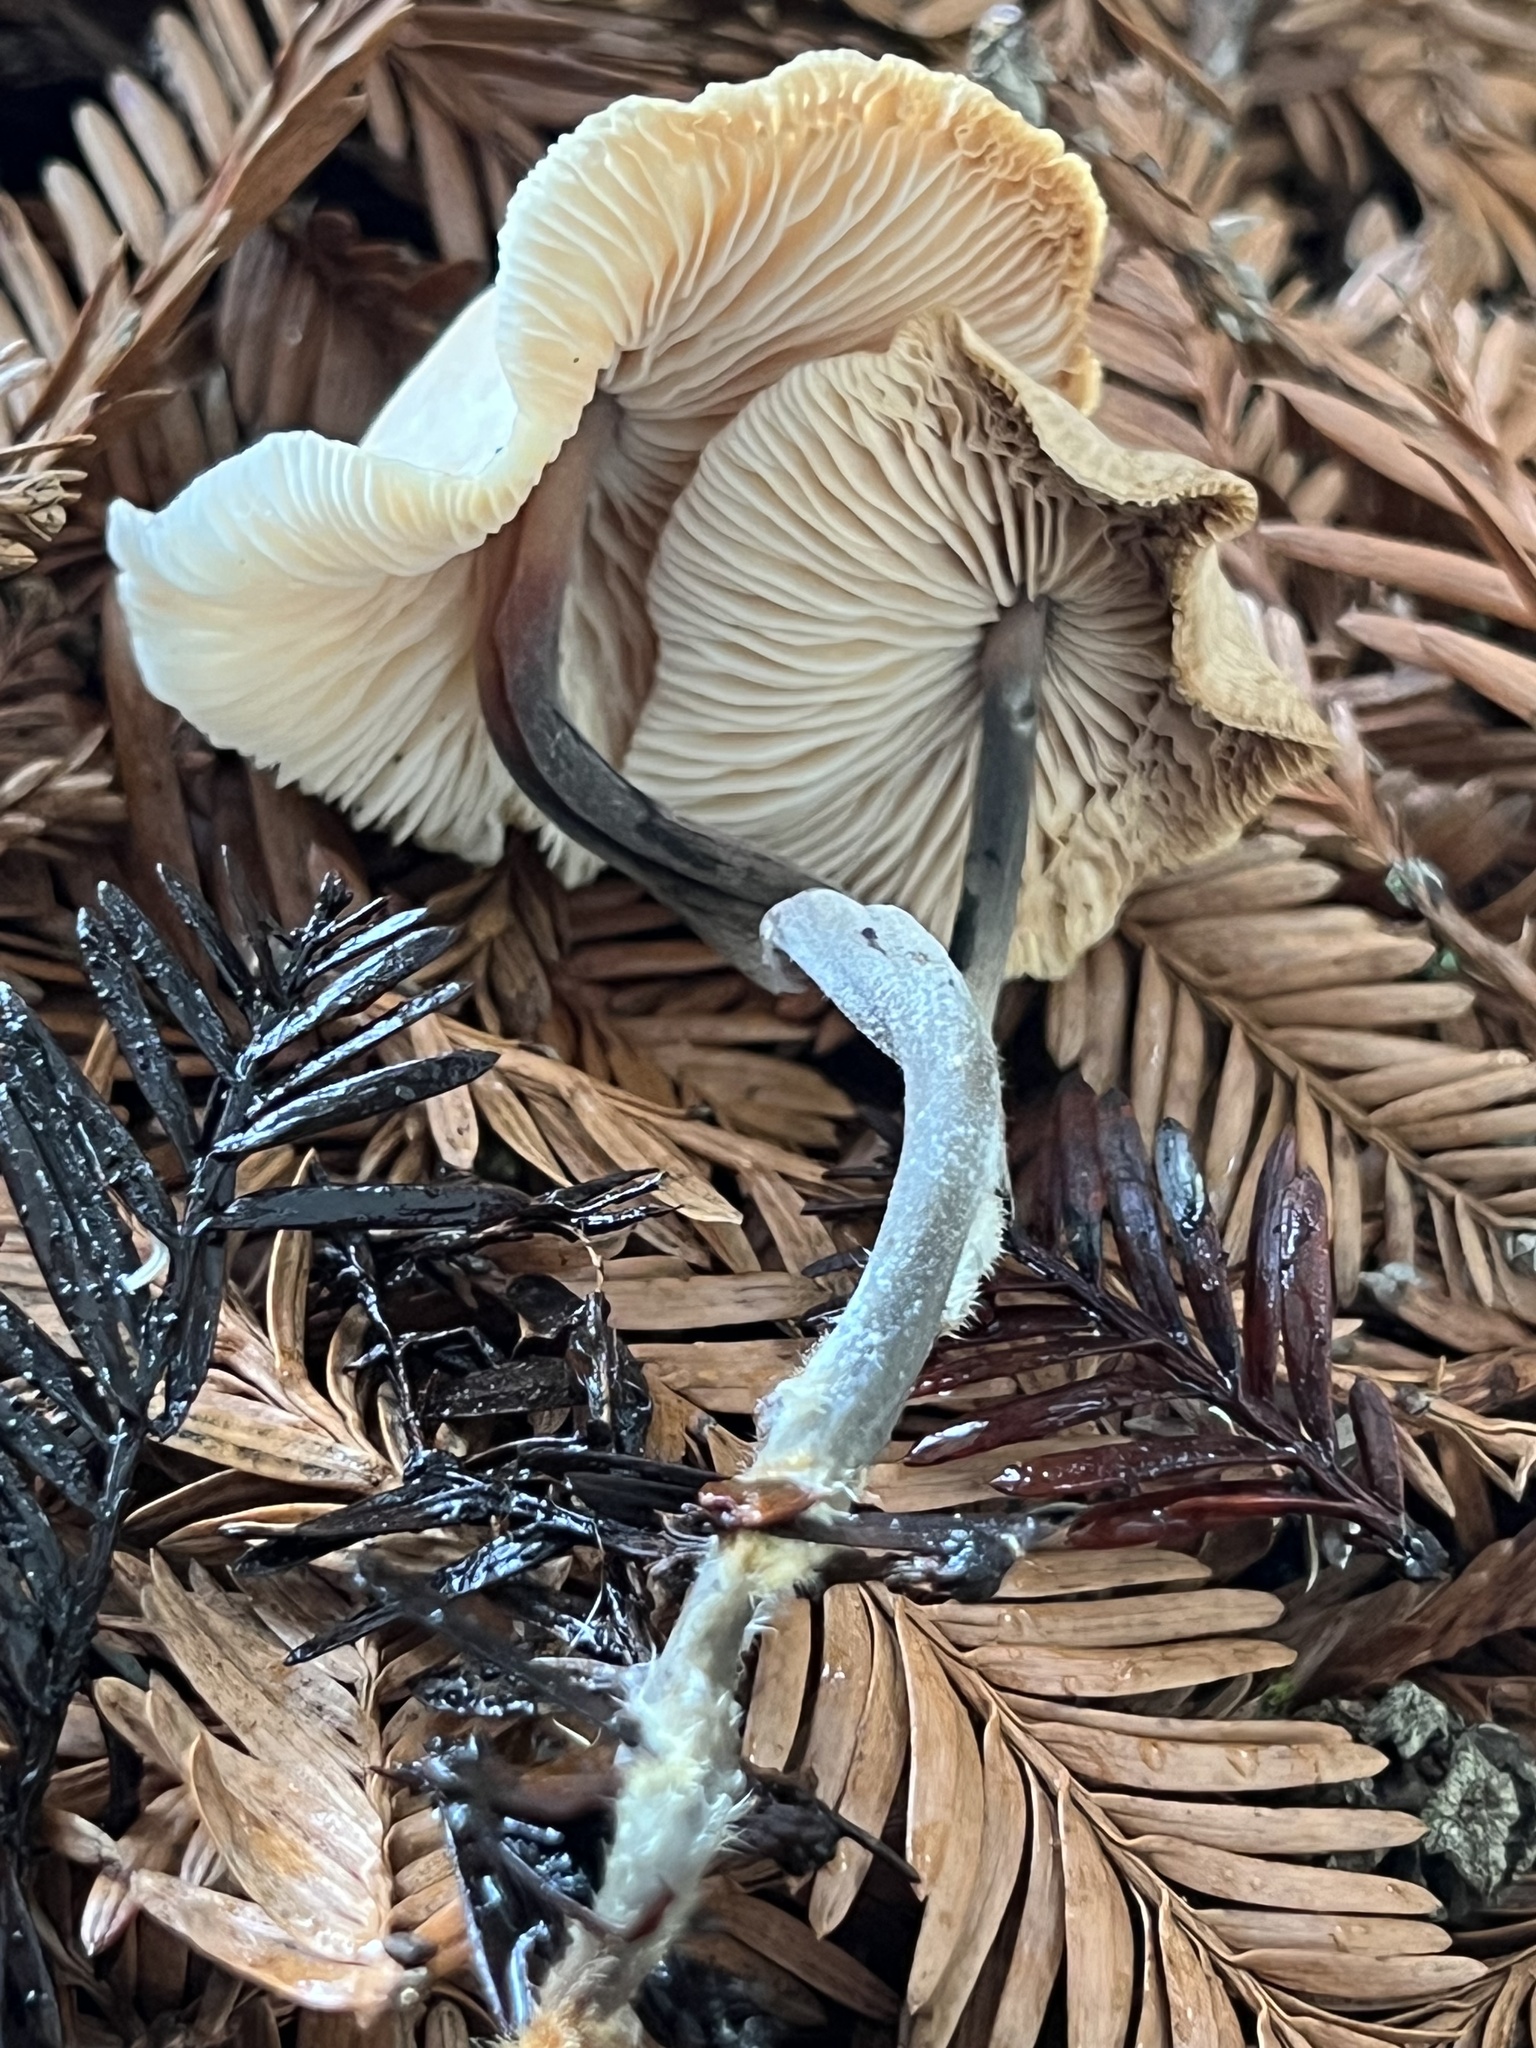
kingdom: Fungi
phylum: Basidiomycota
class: Agaricomycetes
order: Agaricales
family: Omphalotaceae
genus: Gymnopus
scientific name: Gymnopus brassicolens
